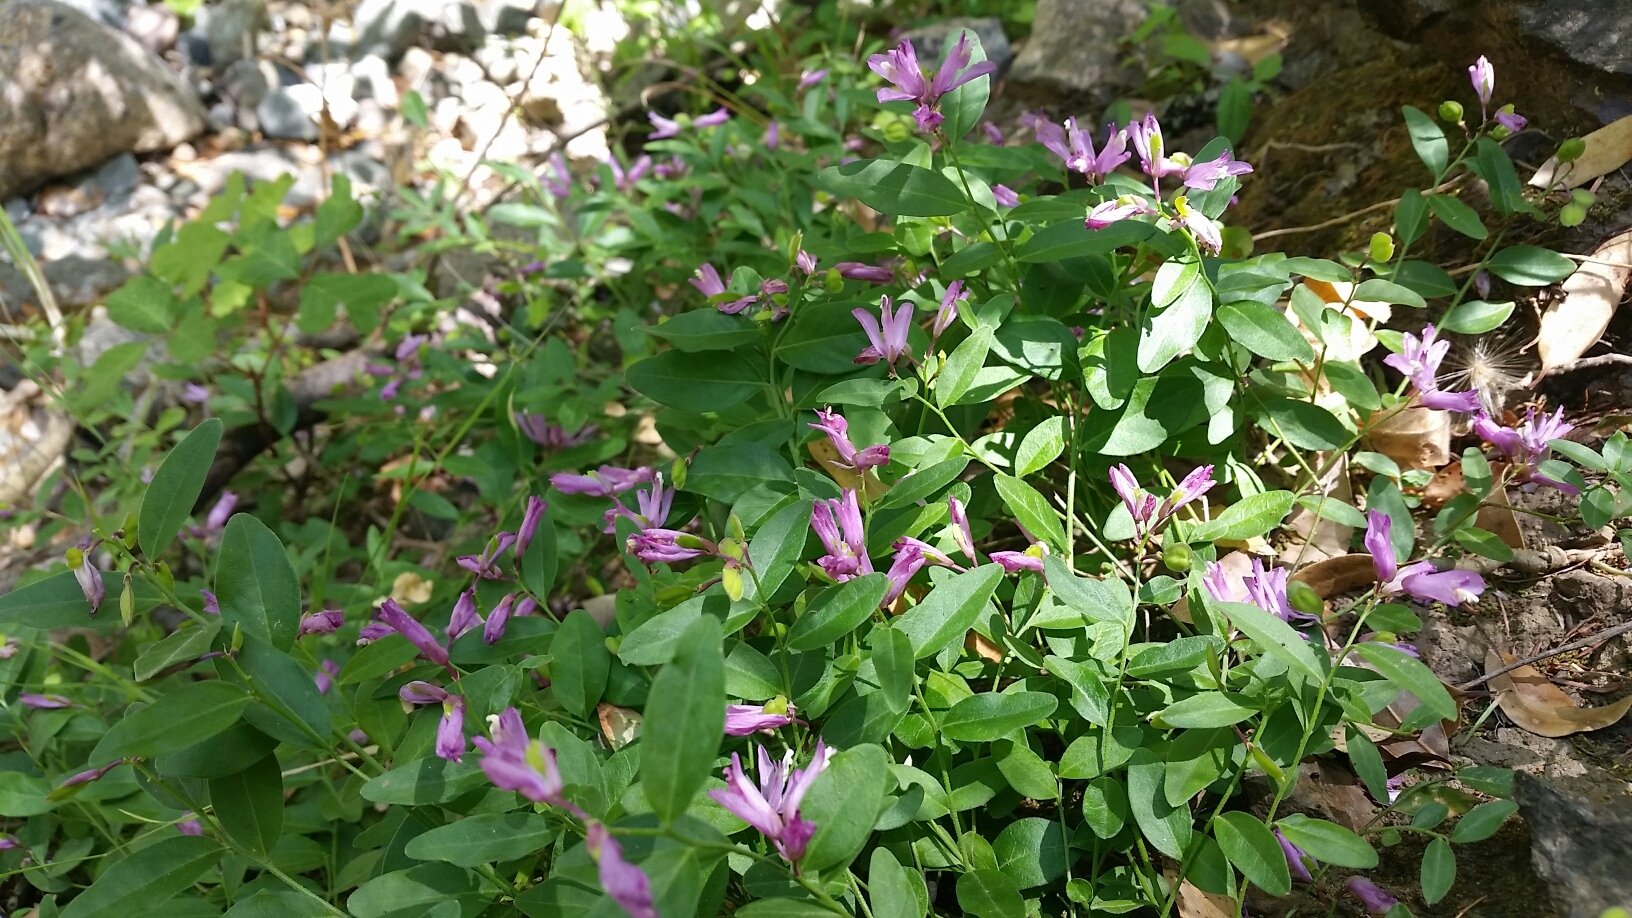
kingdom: Plantae
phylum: Tracheophyta
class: Magnoliopsida
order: Fabales
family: Polygalaceae
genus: Rhinotropis
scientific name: Rhinotropis californica
